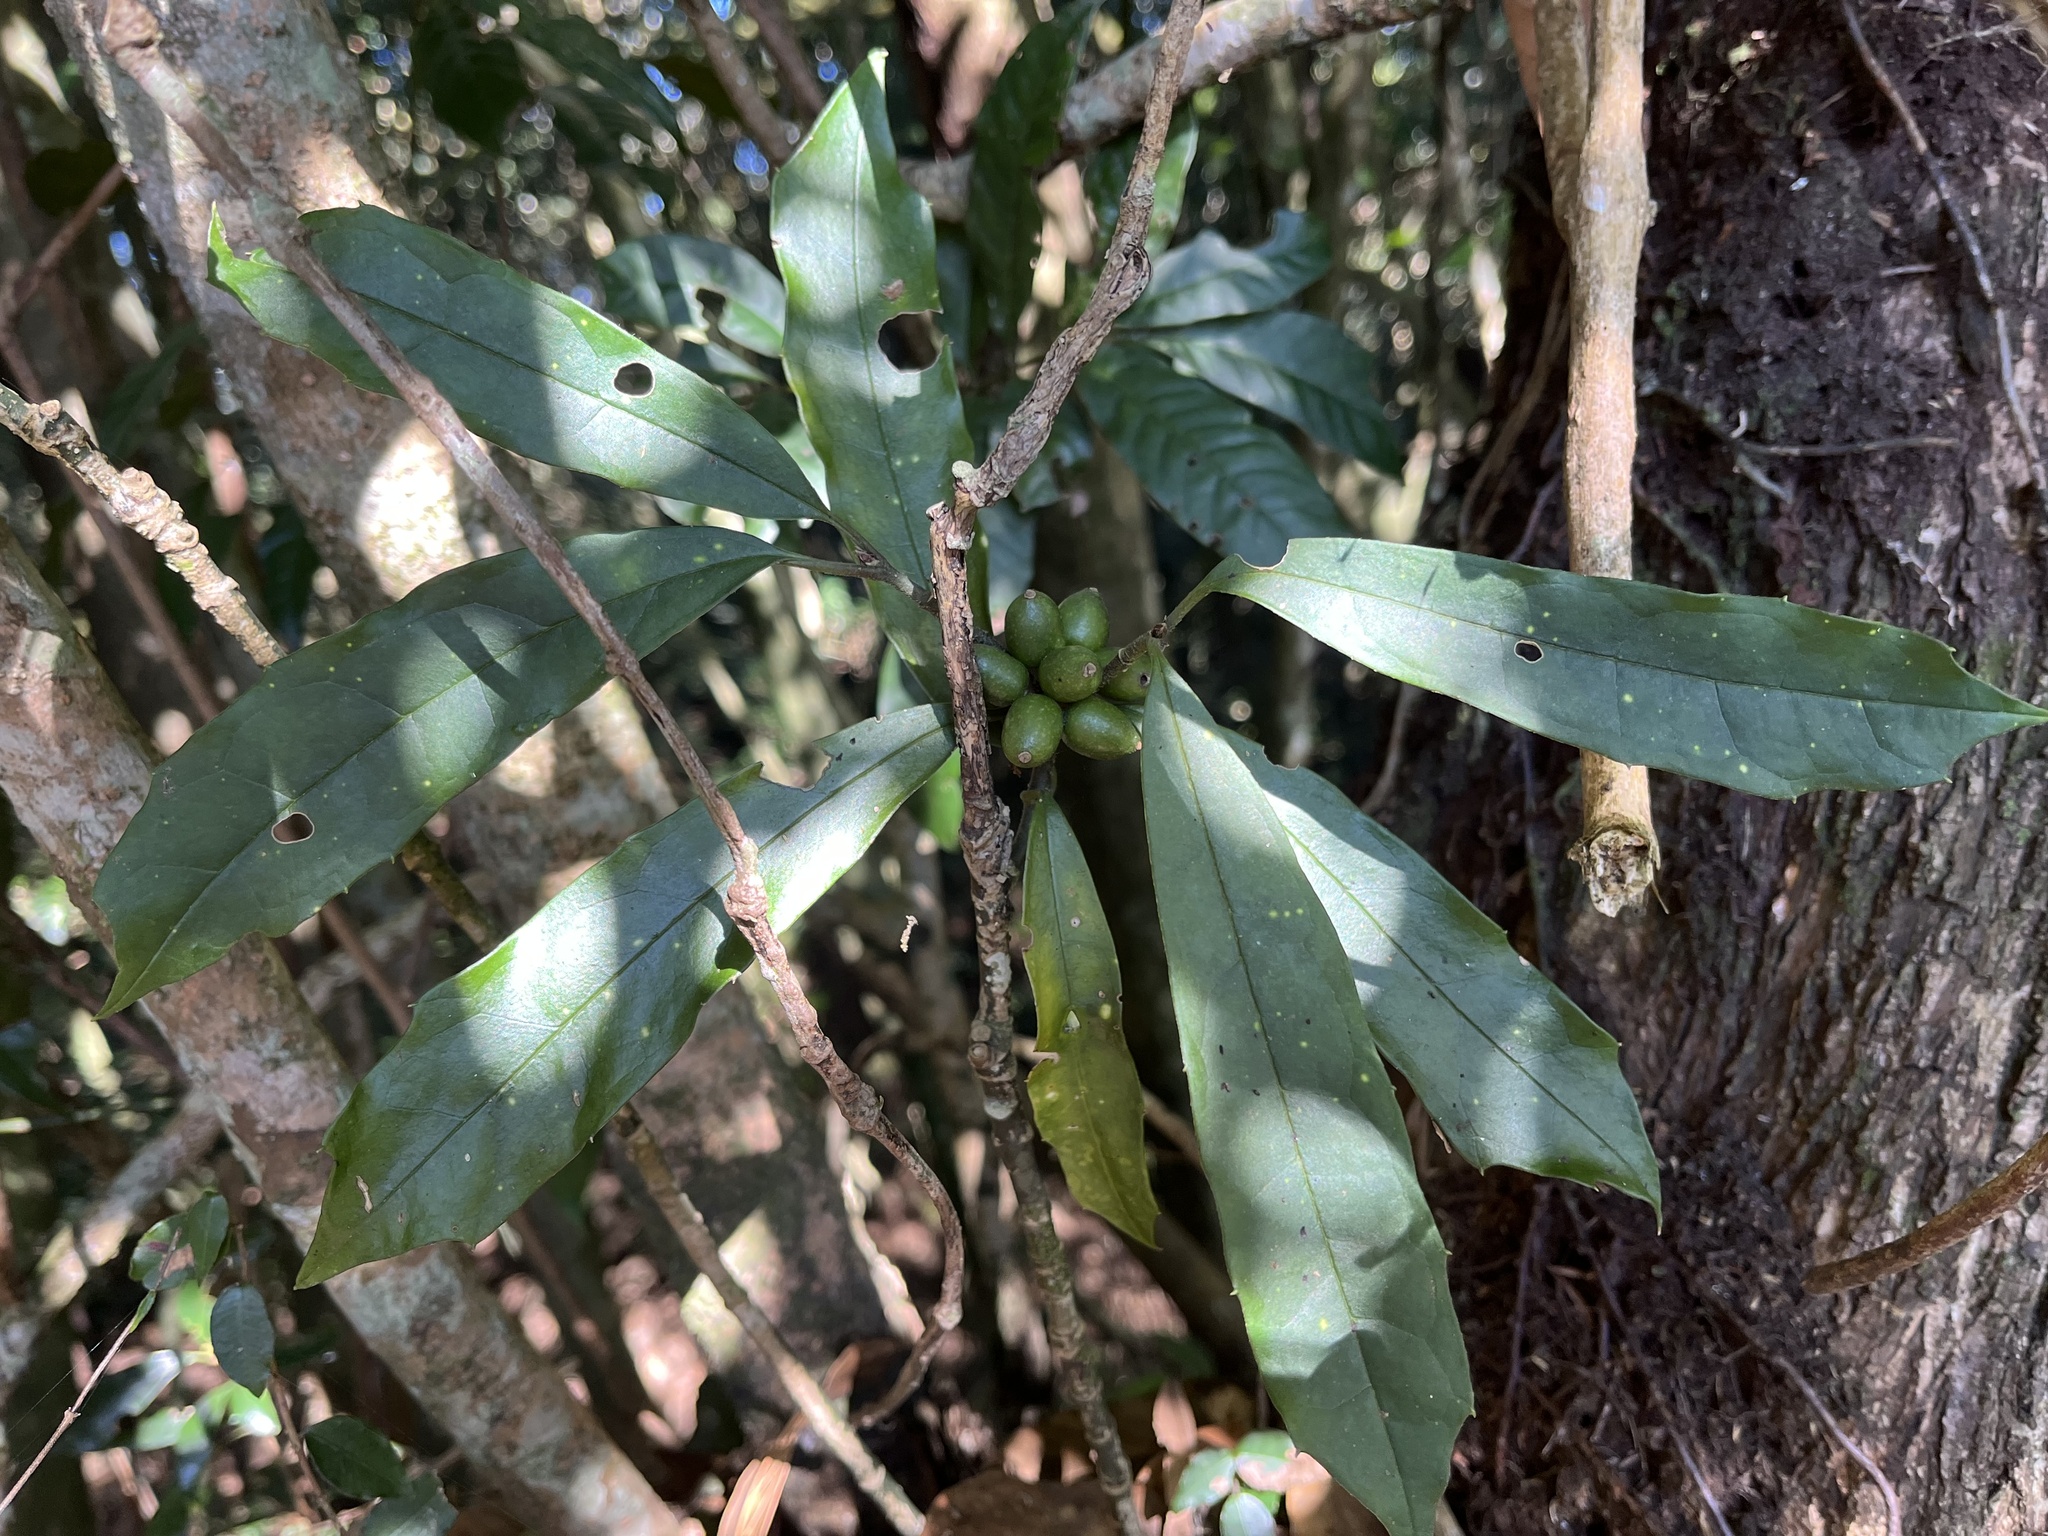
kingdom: Plantae
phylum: Tracheophyta
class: Magnoliopsida
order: Garryales
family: Garryaceae
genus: Aucuba
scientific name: Aucuba chinensis
